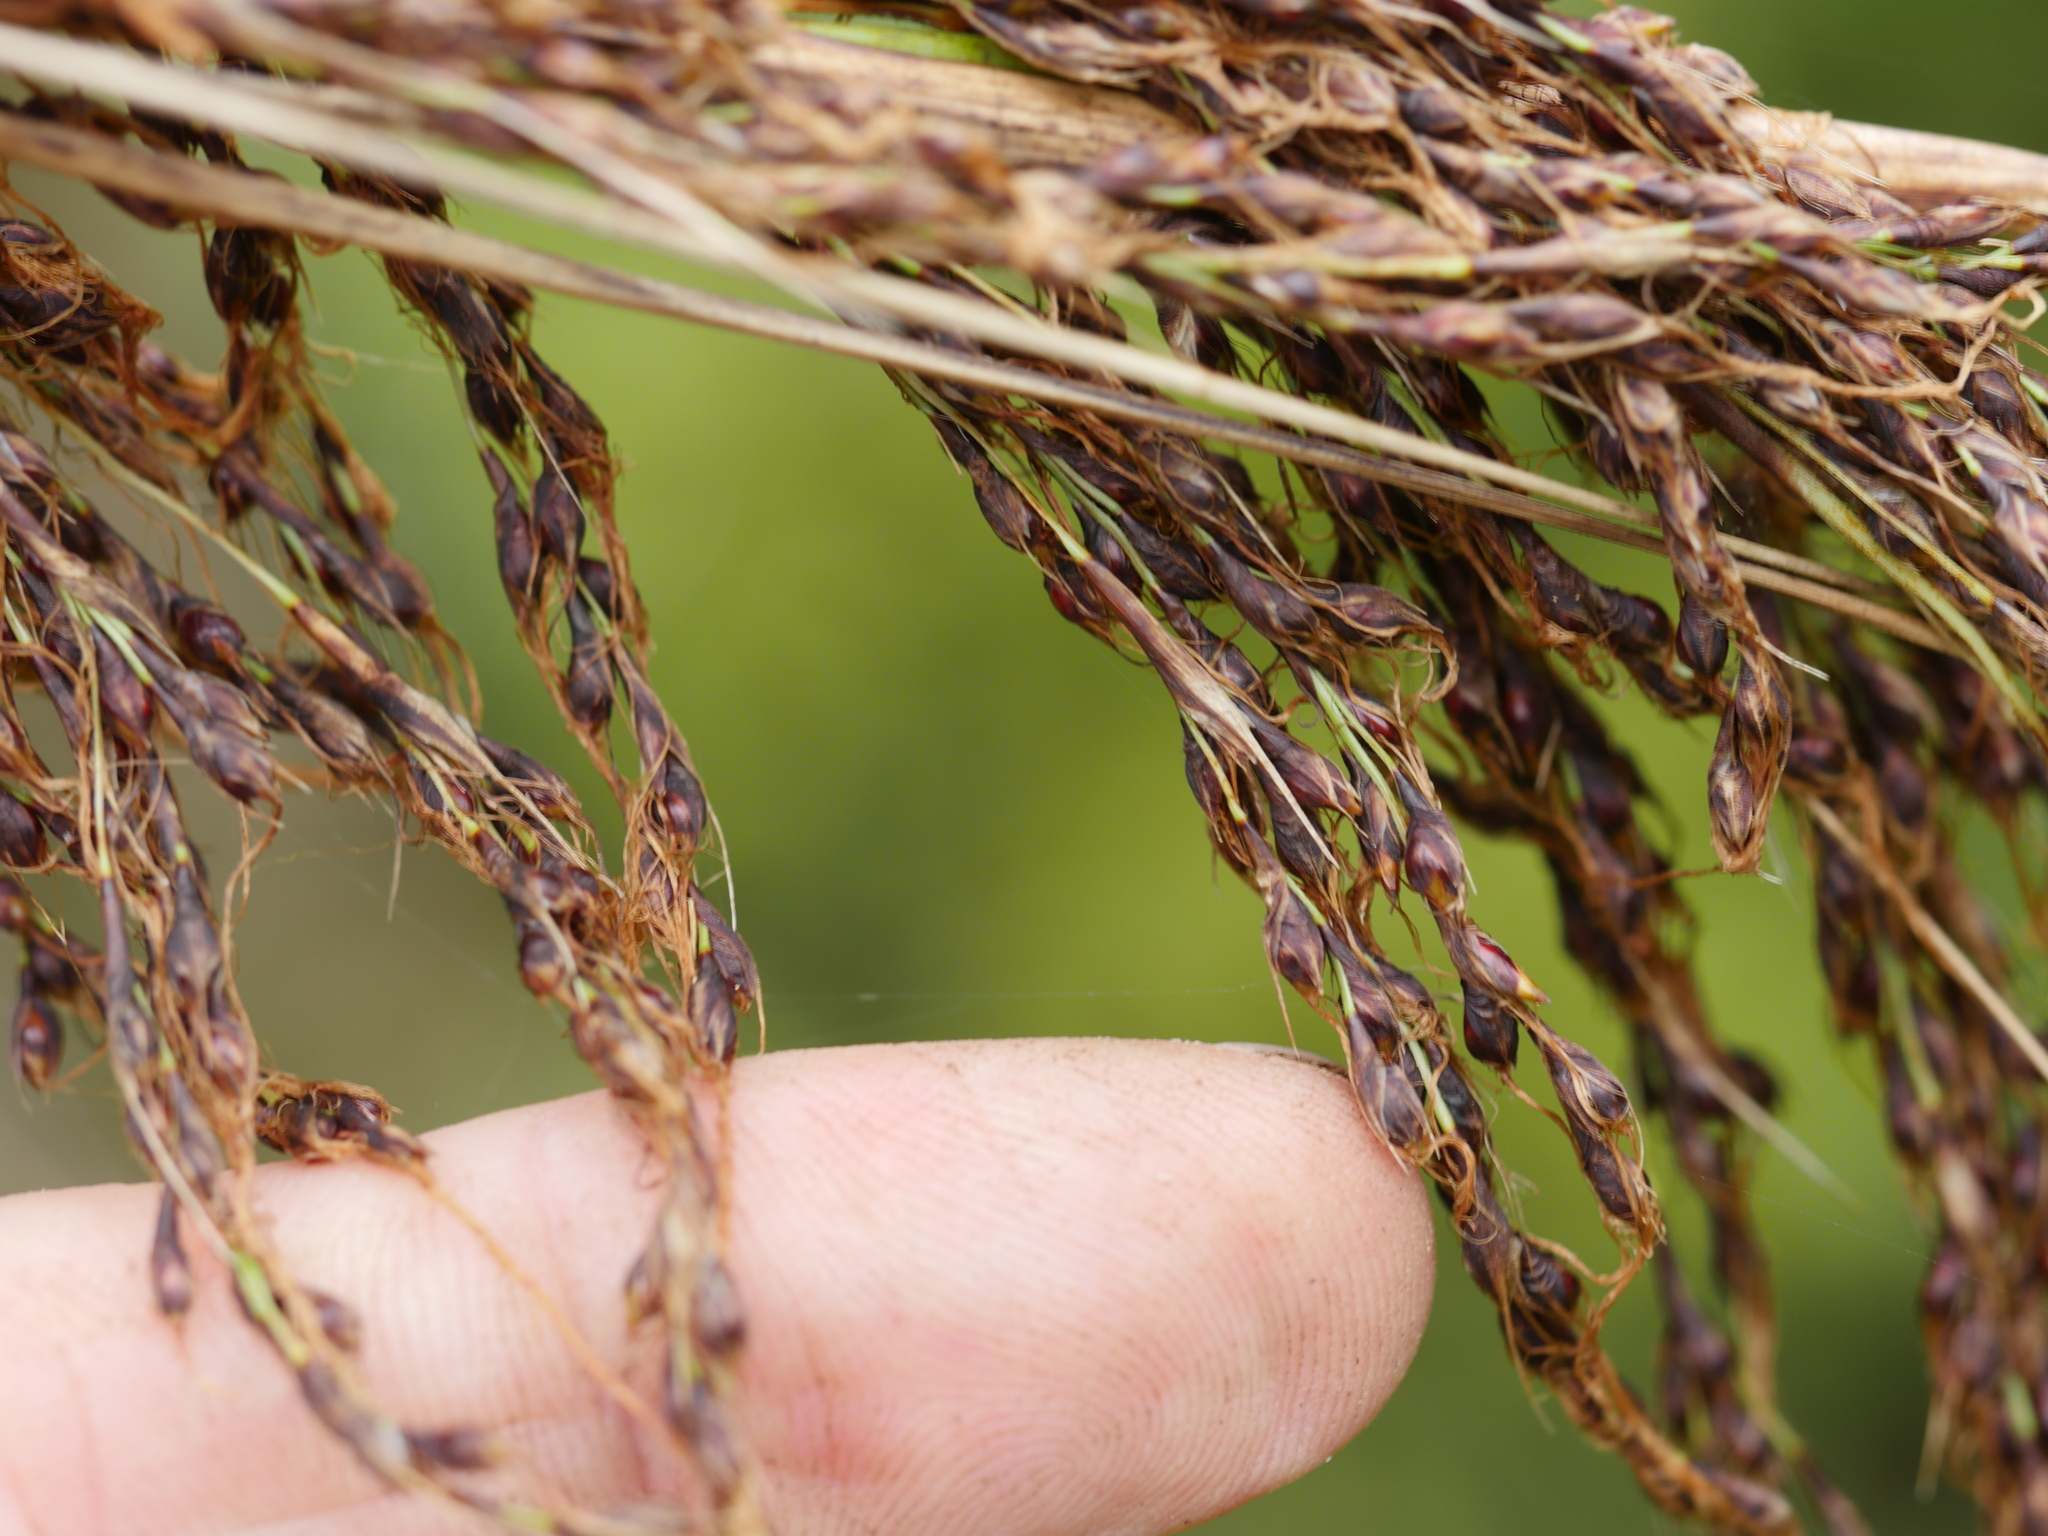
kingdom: Plantae
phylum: Tracheophyta
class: Liliopsida
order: Poales
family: Cyperaceae
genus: Gahnia
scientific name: Gahnia setifolia
